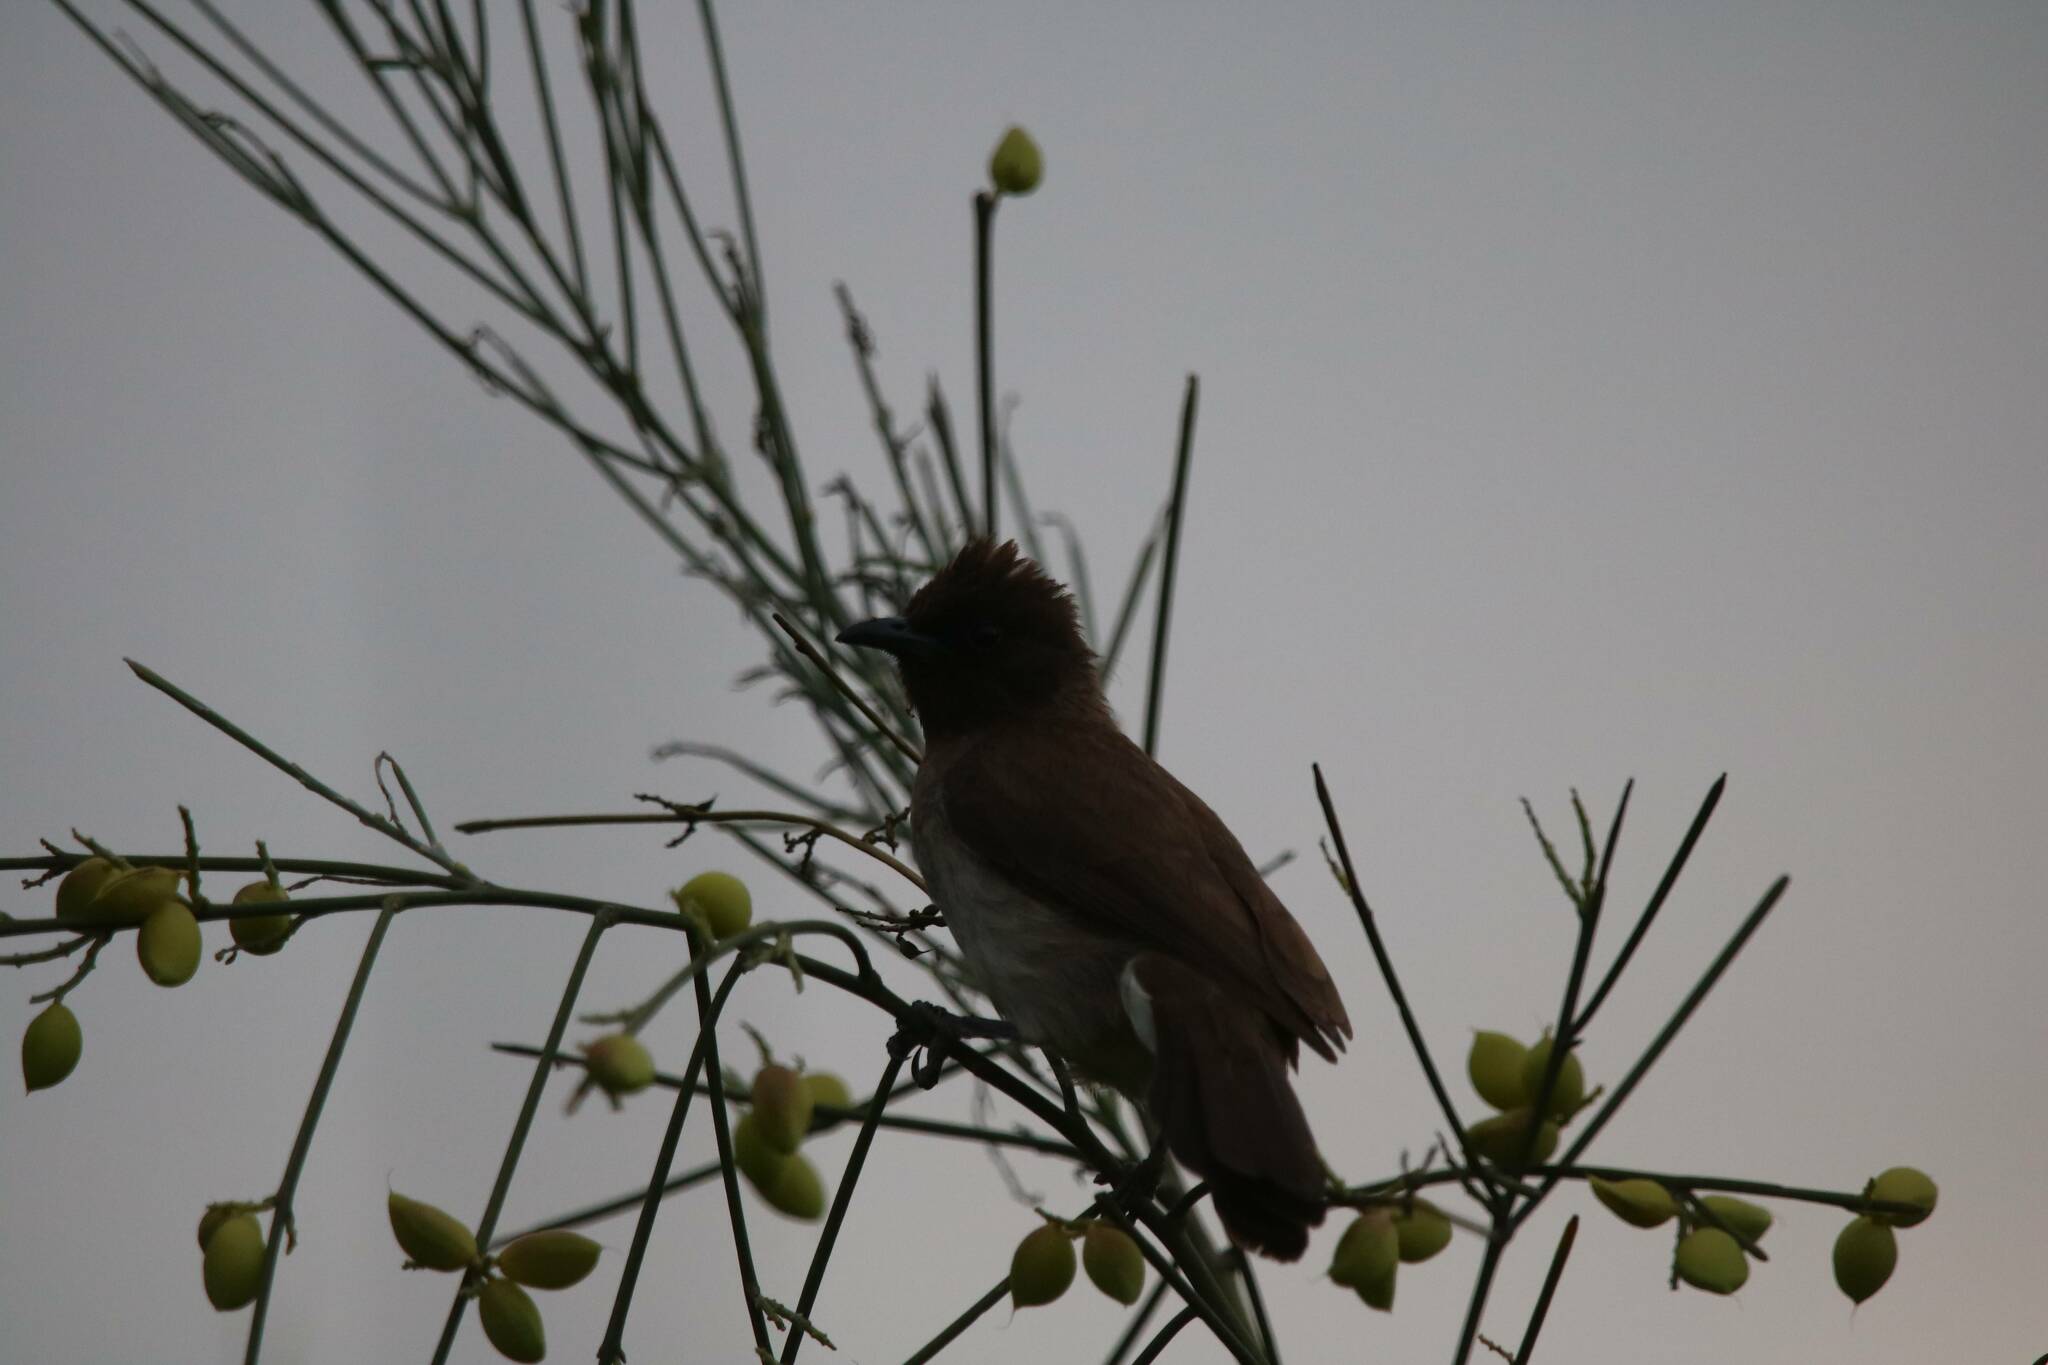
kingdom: Animalia
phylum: Chordata
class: Aves
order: Passeriformes
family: Pycnonotidae
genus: Pycnonotus
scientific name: Pycnonotus barbatus
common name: Common bulbul
